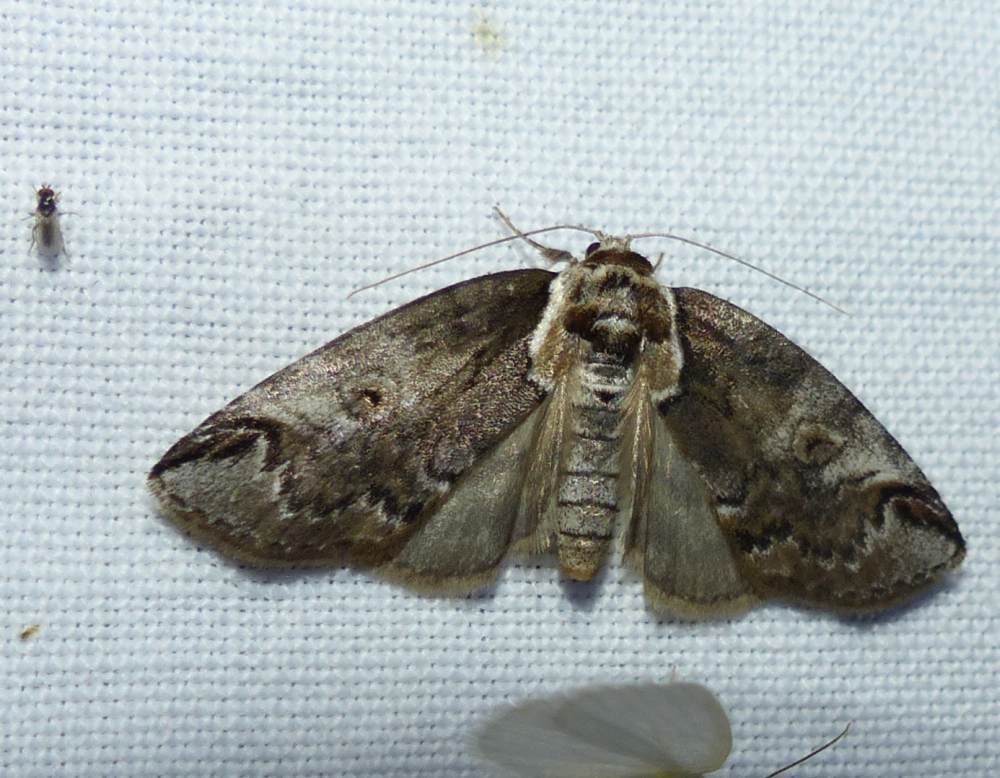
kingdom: Animalia
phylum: Arthropoda
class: Insecta
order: Lepidoptera
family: Nolidae
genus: Baileya
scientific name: Baileya ophthalmica
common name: Eyed baileya moth
